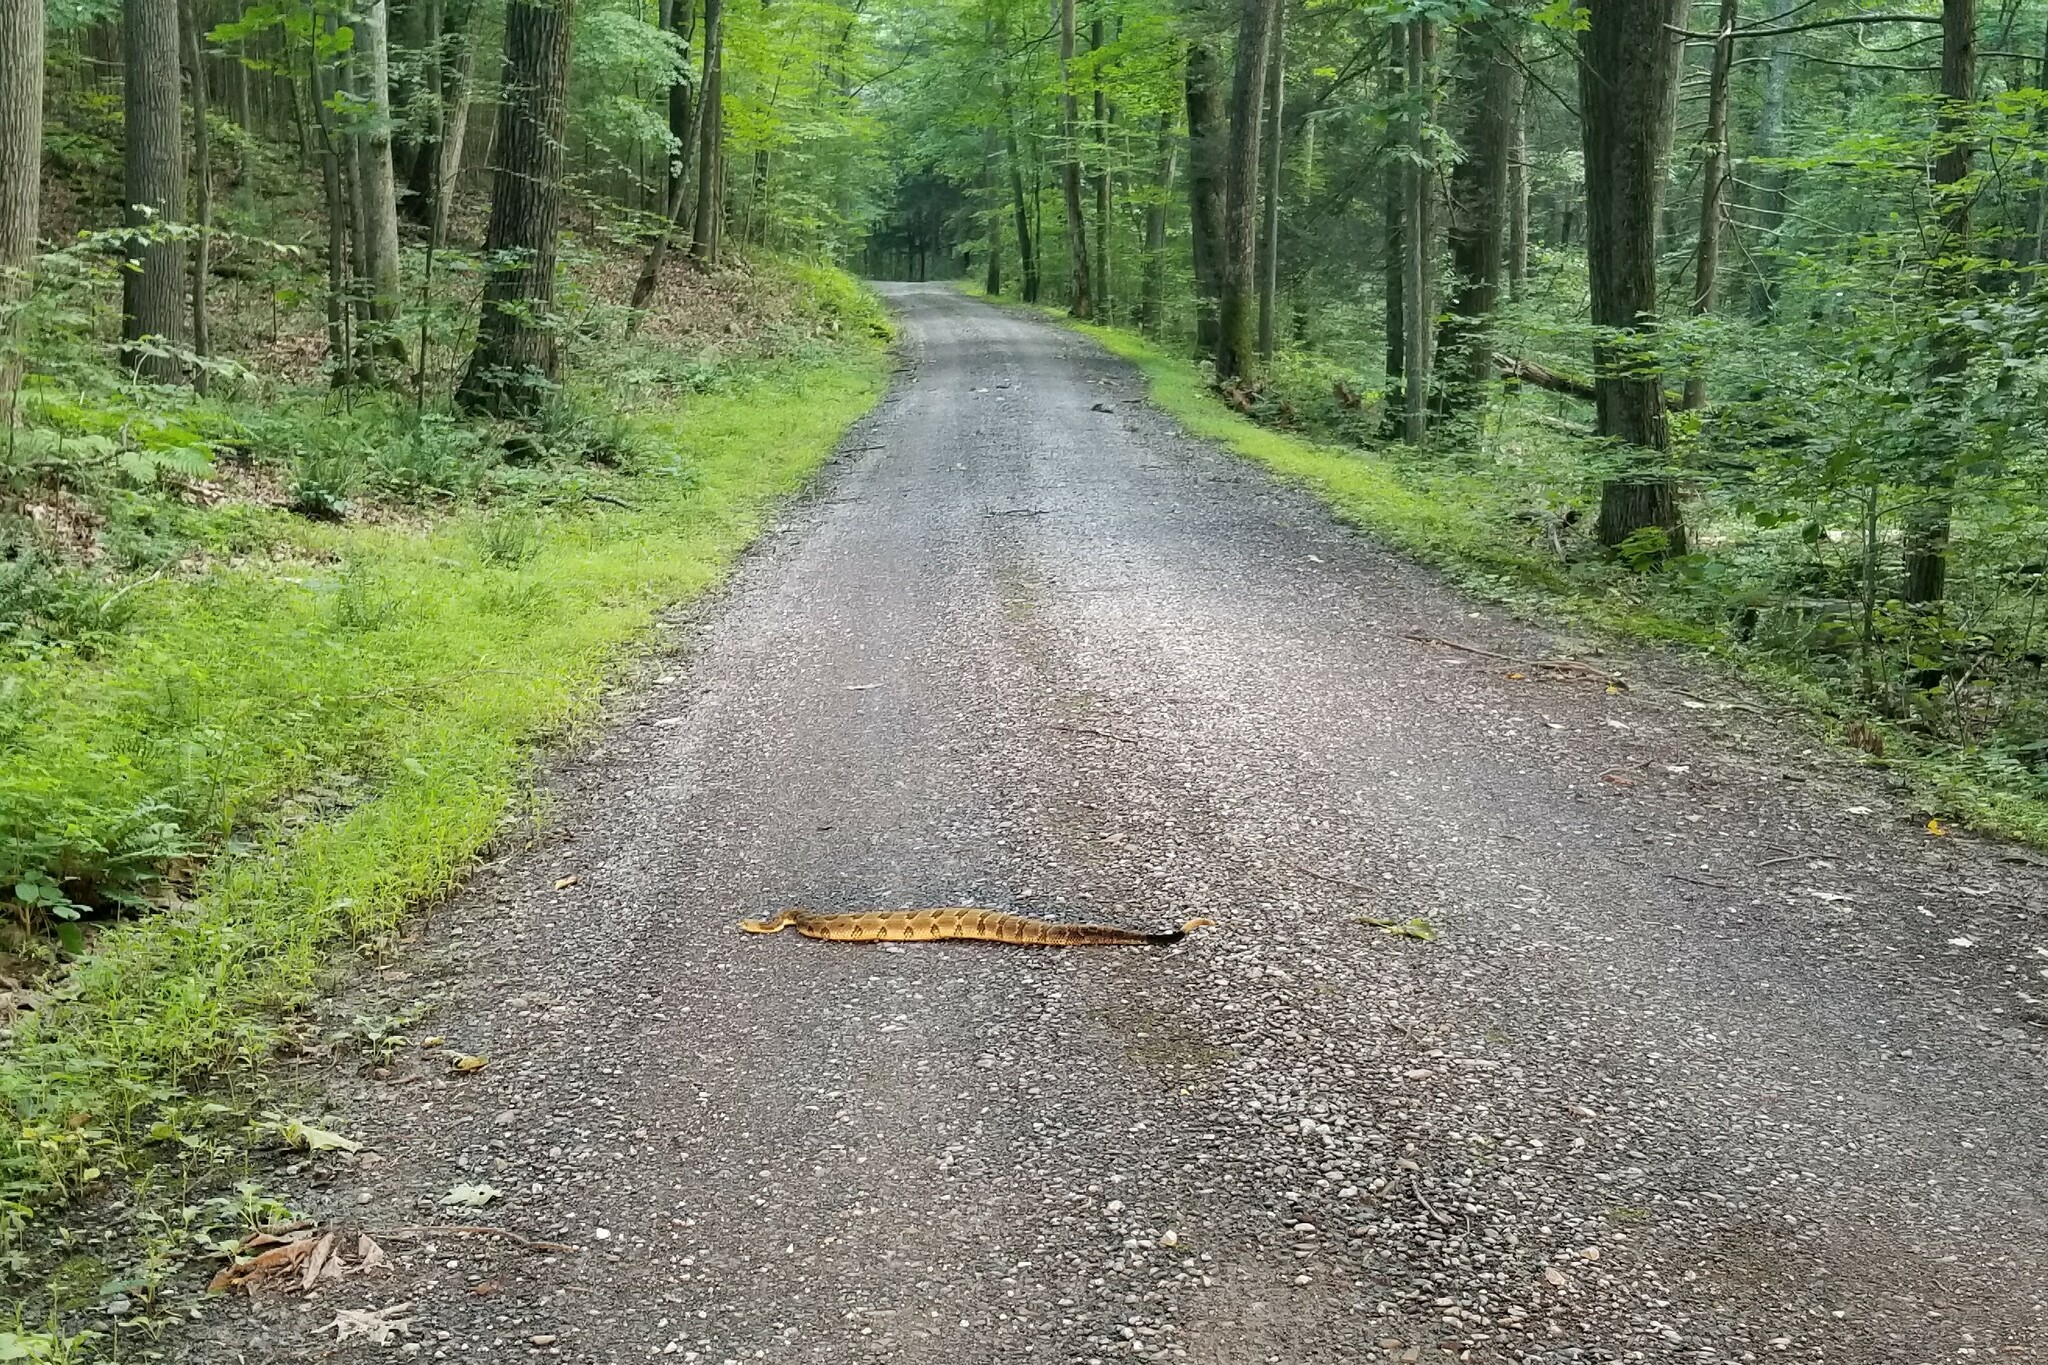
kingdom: Animalia
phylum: Chordata
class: Squamata
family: Viperidae
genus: Crotalus
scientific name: Crotalus horridus
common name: Timber rattlesnake
